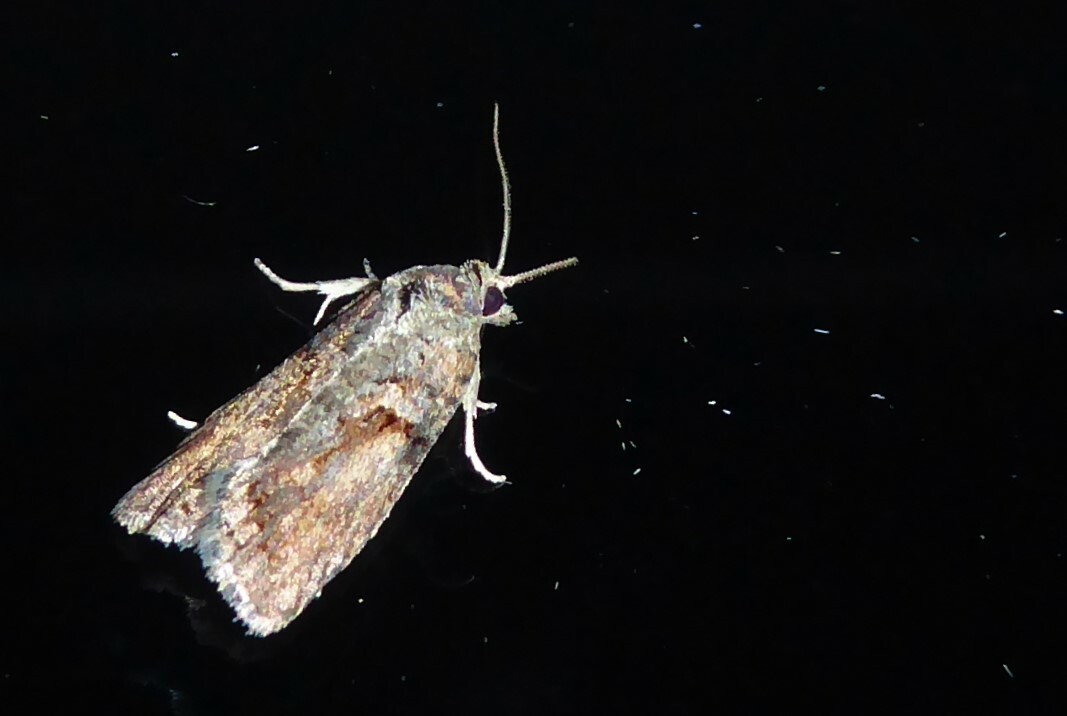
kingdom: Animalia
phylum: Arthropoda
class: Insecta
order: Lepidoptera
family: Tortricidae
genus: Harmologa
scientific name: Harmologa oblongana
